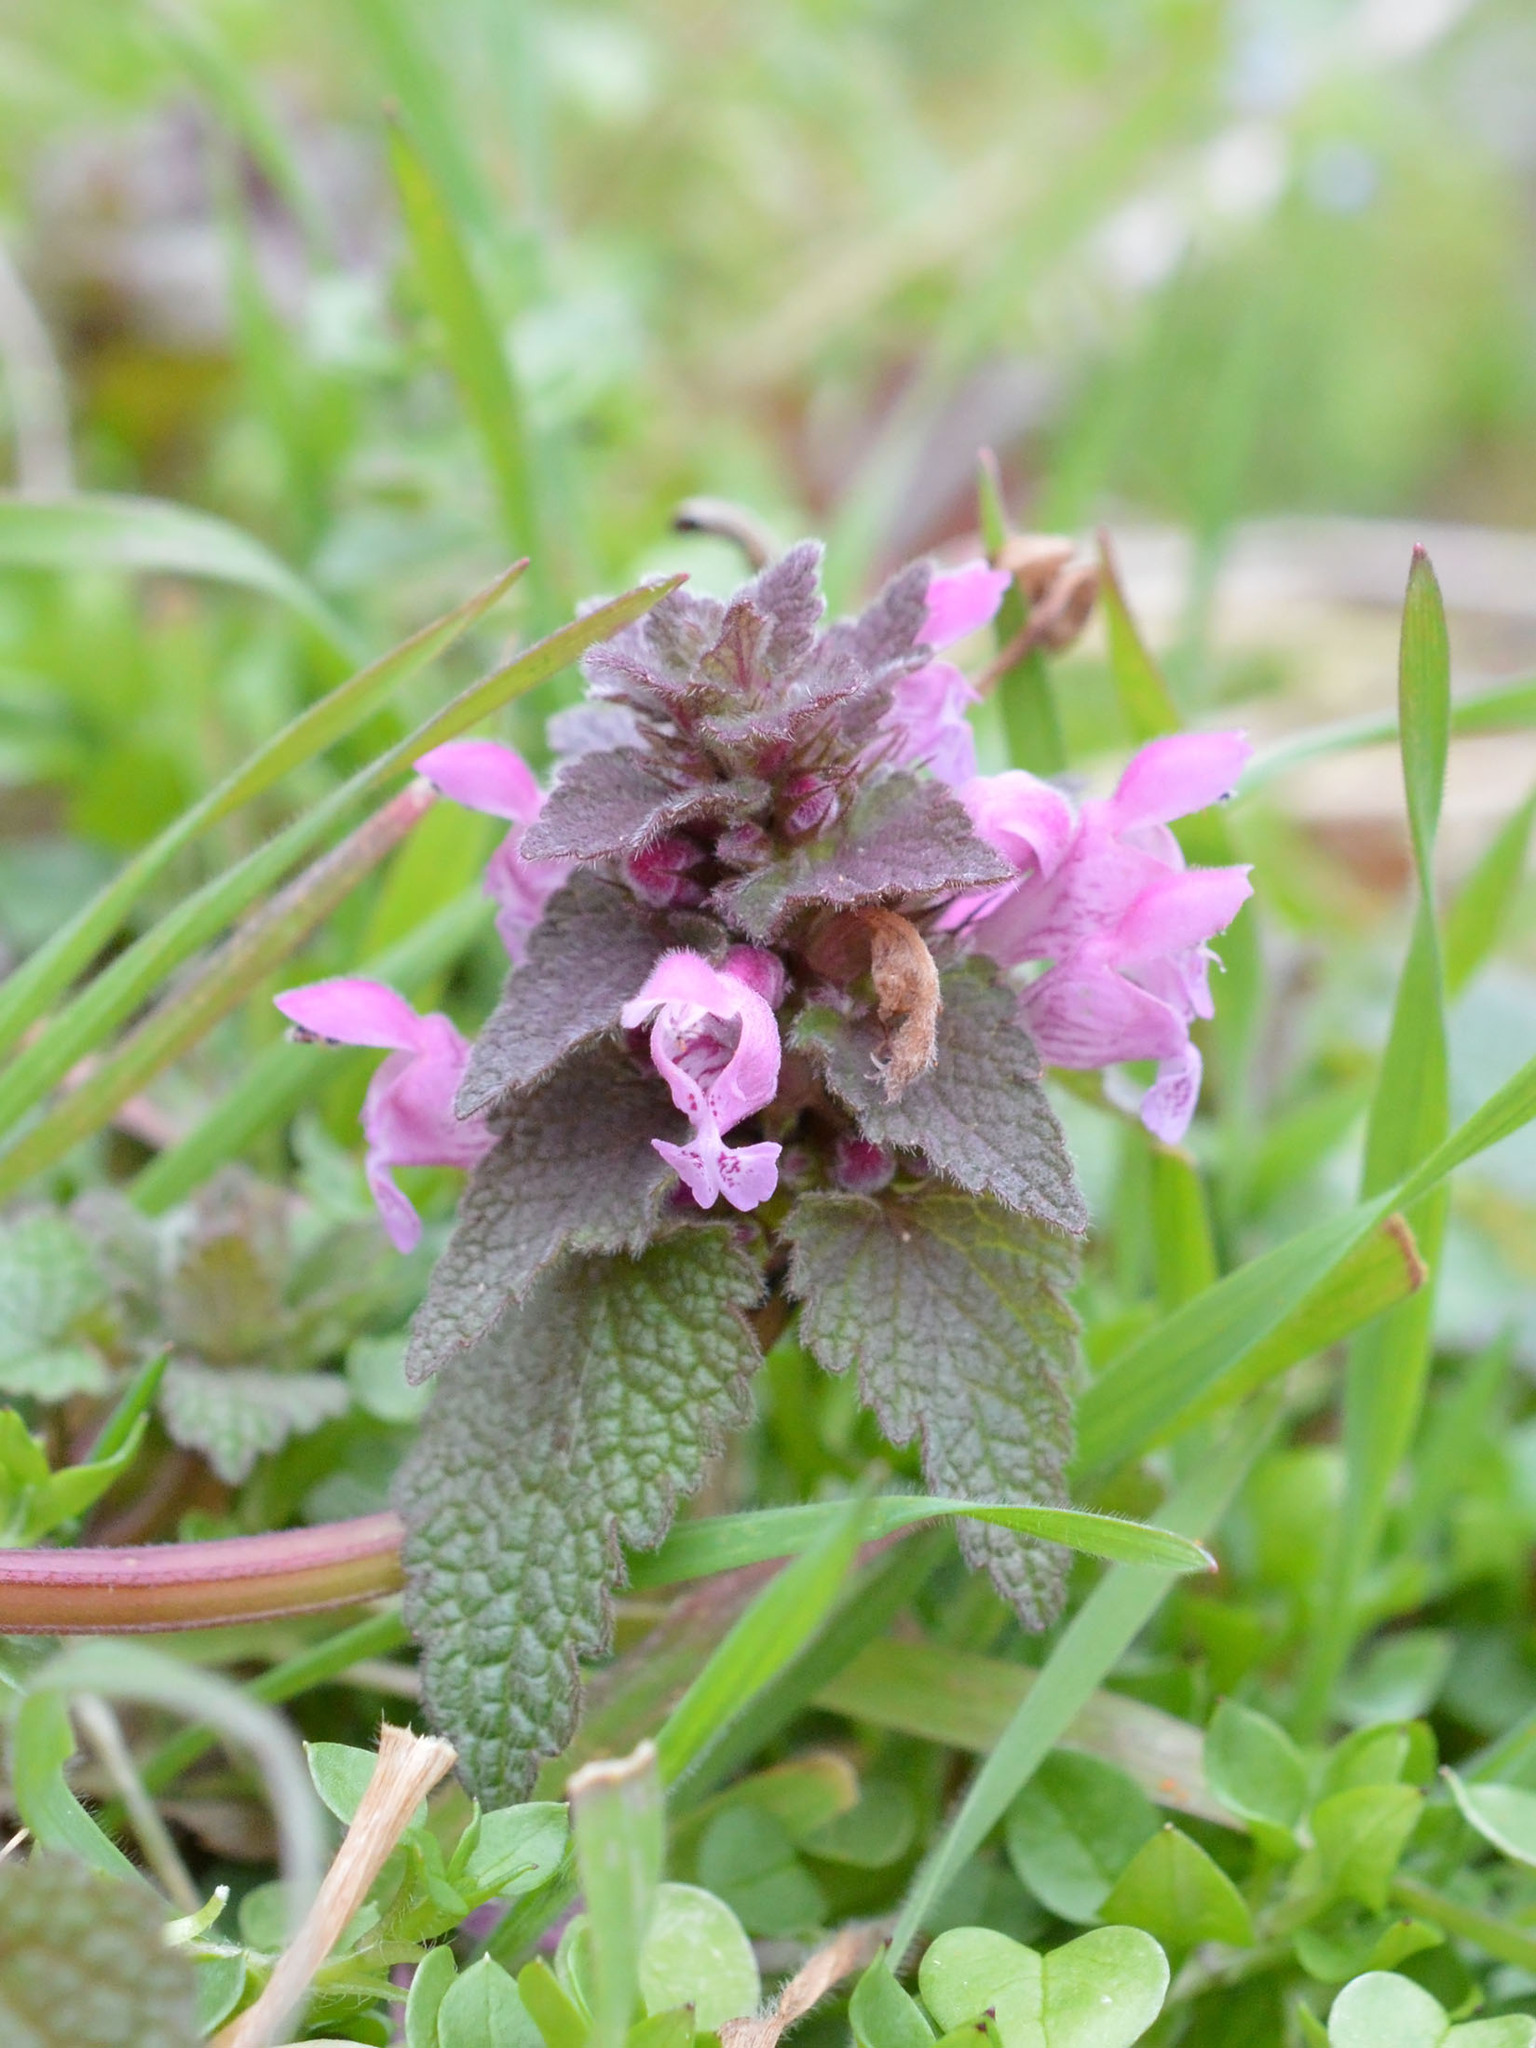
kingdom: Plantae
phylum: Tracheophyta
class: Magnoliopsida
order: Lamiales
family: Lamiaceae
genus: Lamium
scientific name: Lamium purpureum
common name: Red dead-nettle
